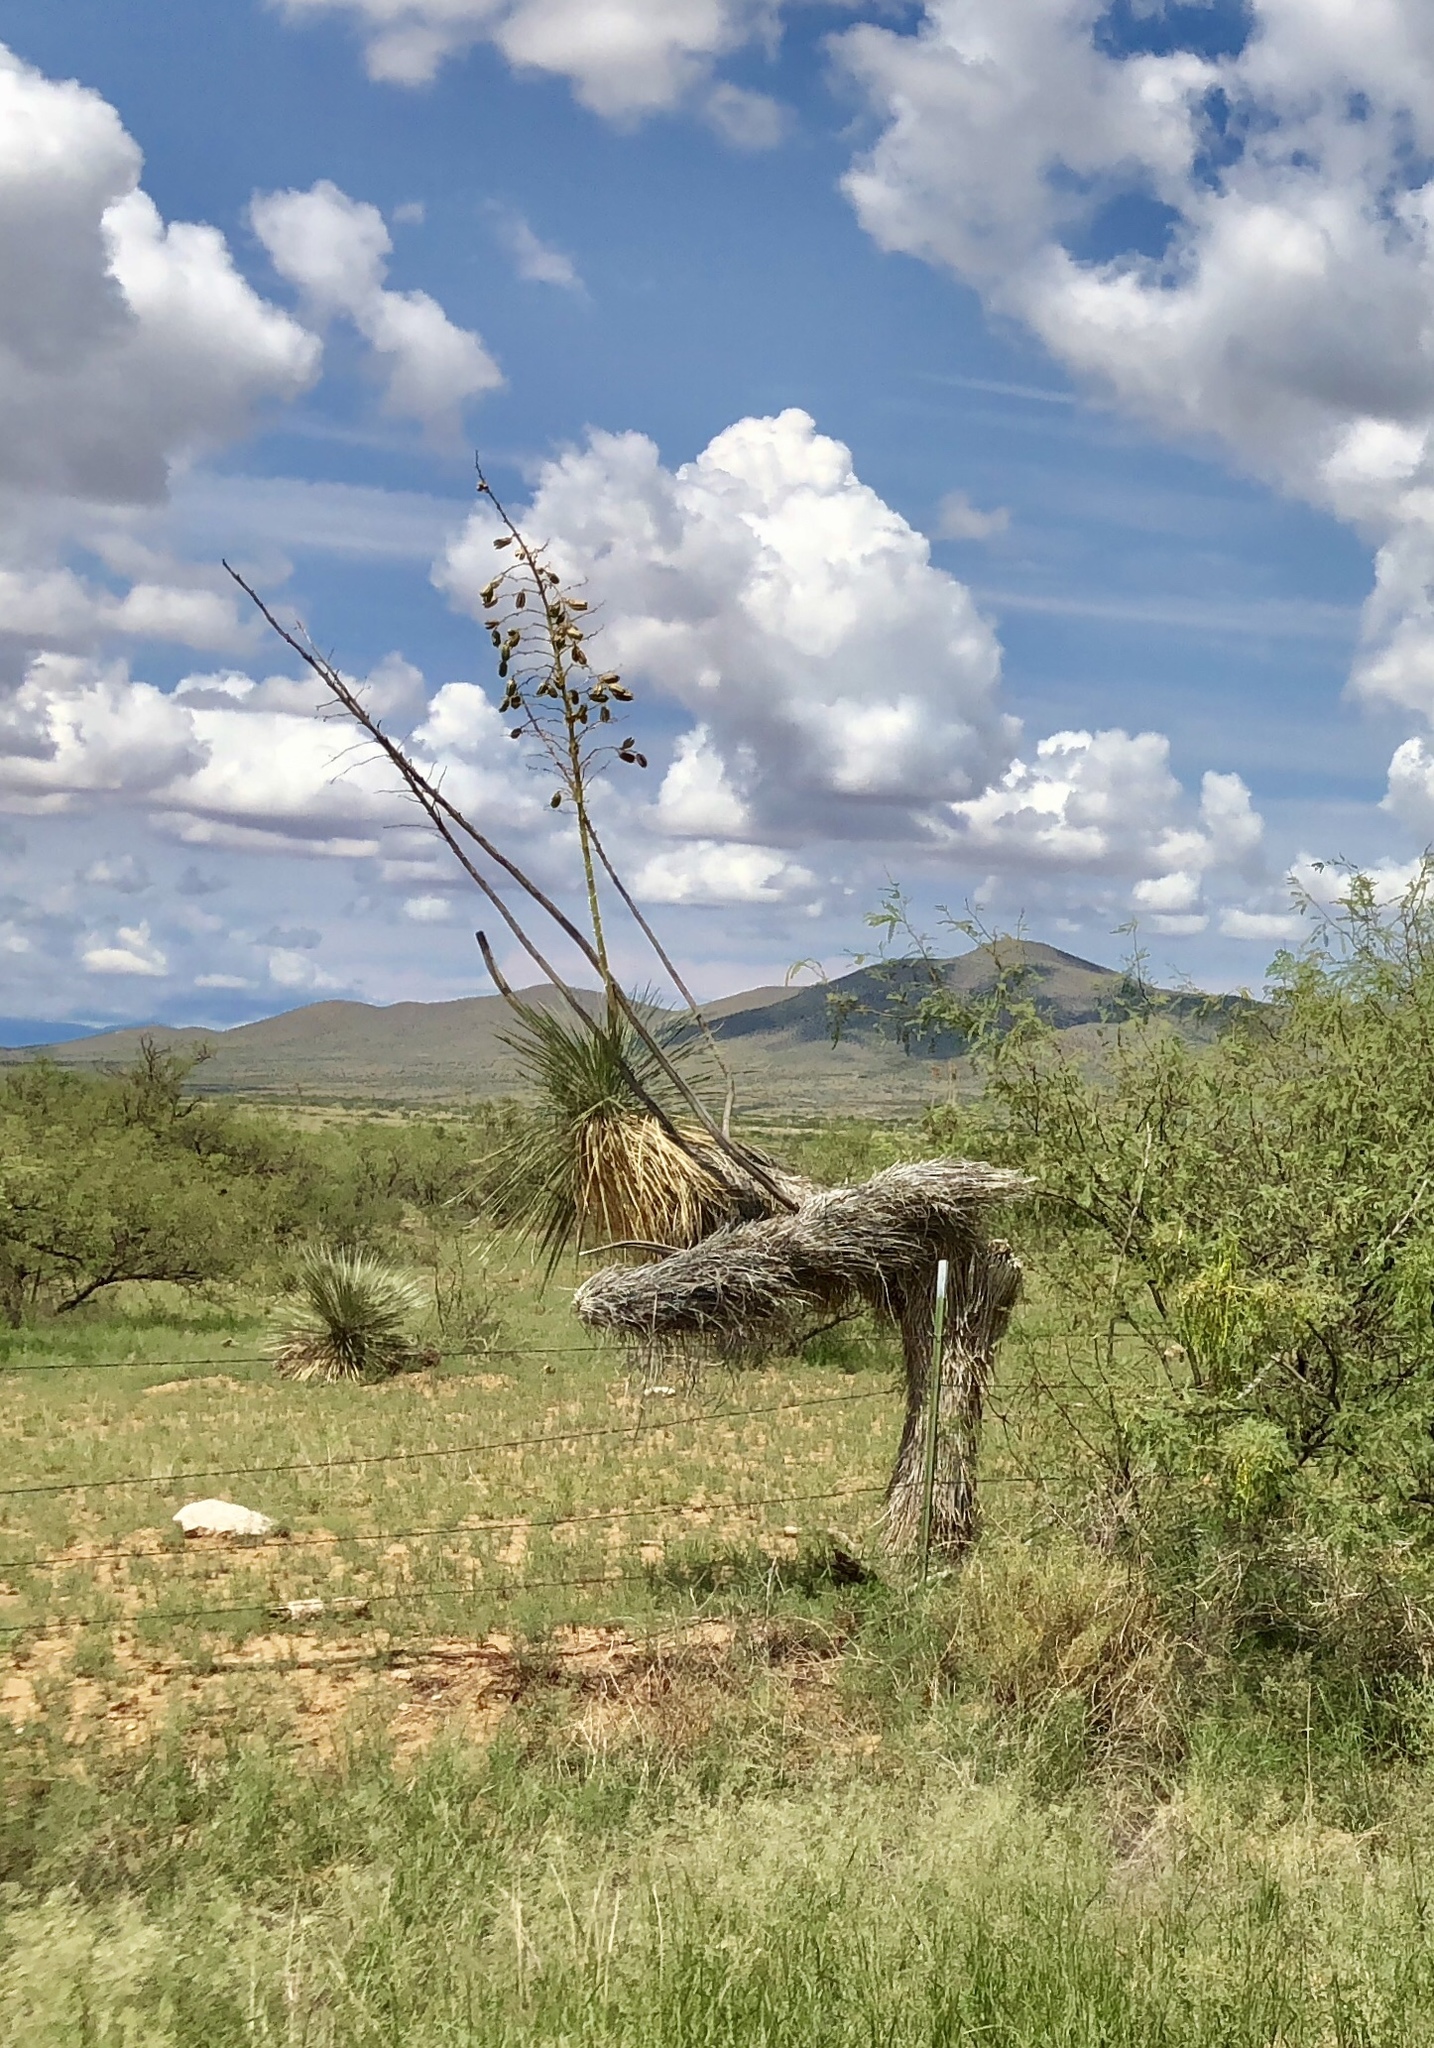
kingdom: Plantae
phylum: Tracheophyta
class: Liliopsida
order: Asparagales
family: Asparagaceae
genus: Yucca
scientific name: Yucca elata
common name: Palmella
